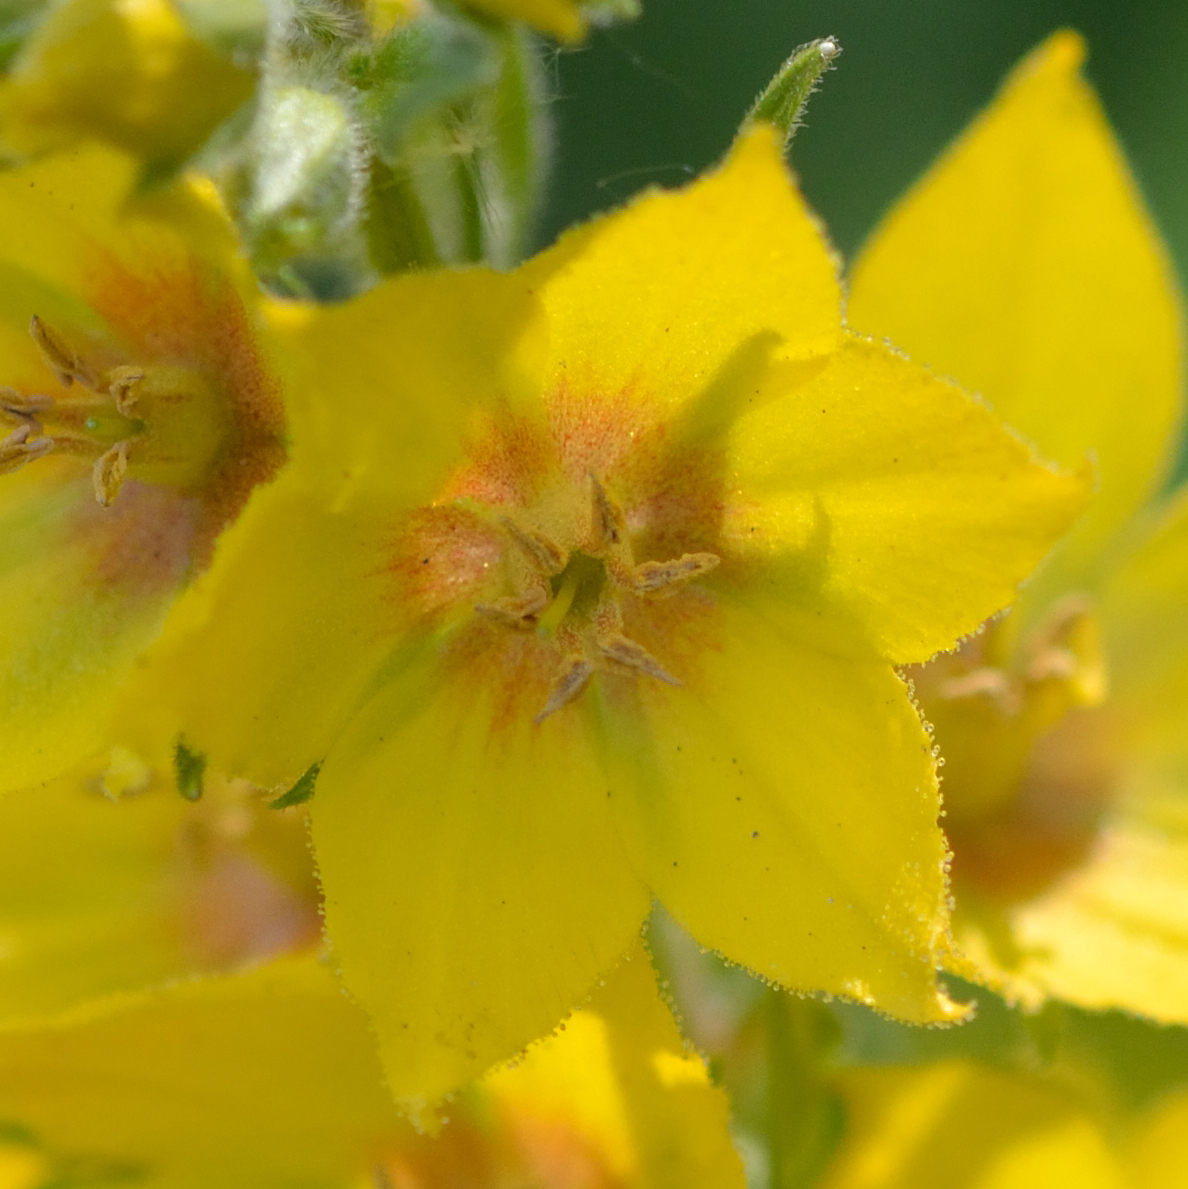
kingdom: Plantae
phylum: Tracheophyta
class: Magnoliopsida
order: Ericales
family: Primulaceae
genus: Lysimachia
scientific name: Lysimachia punctata
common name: Dotted loosestrife
